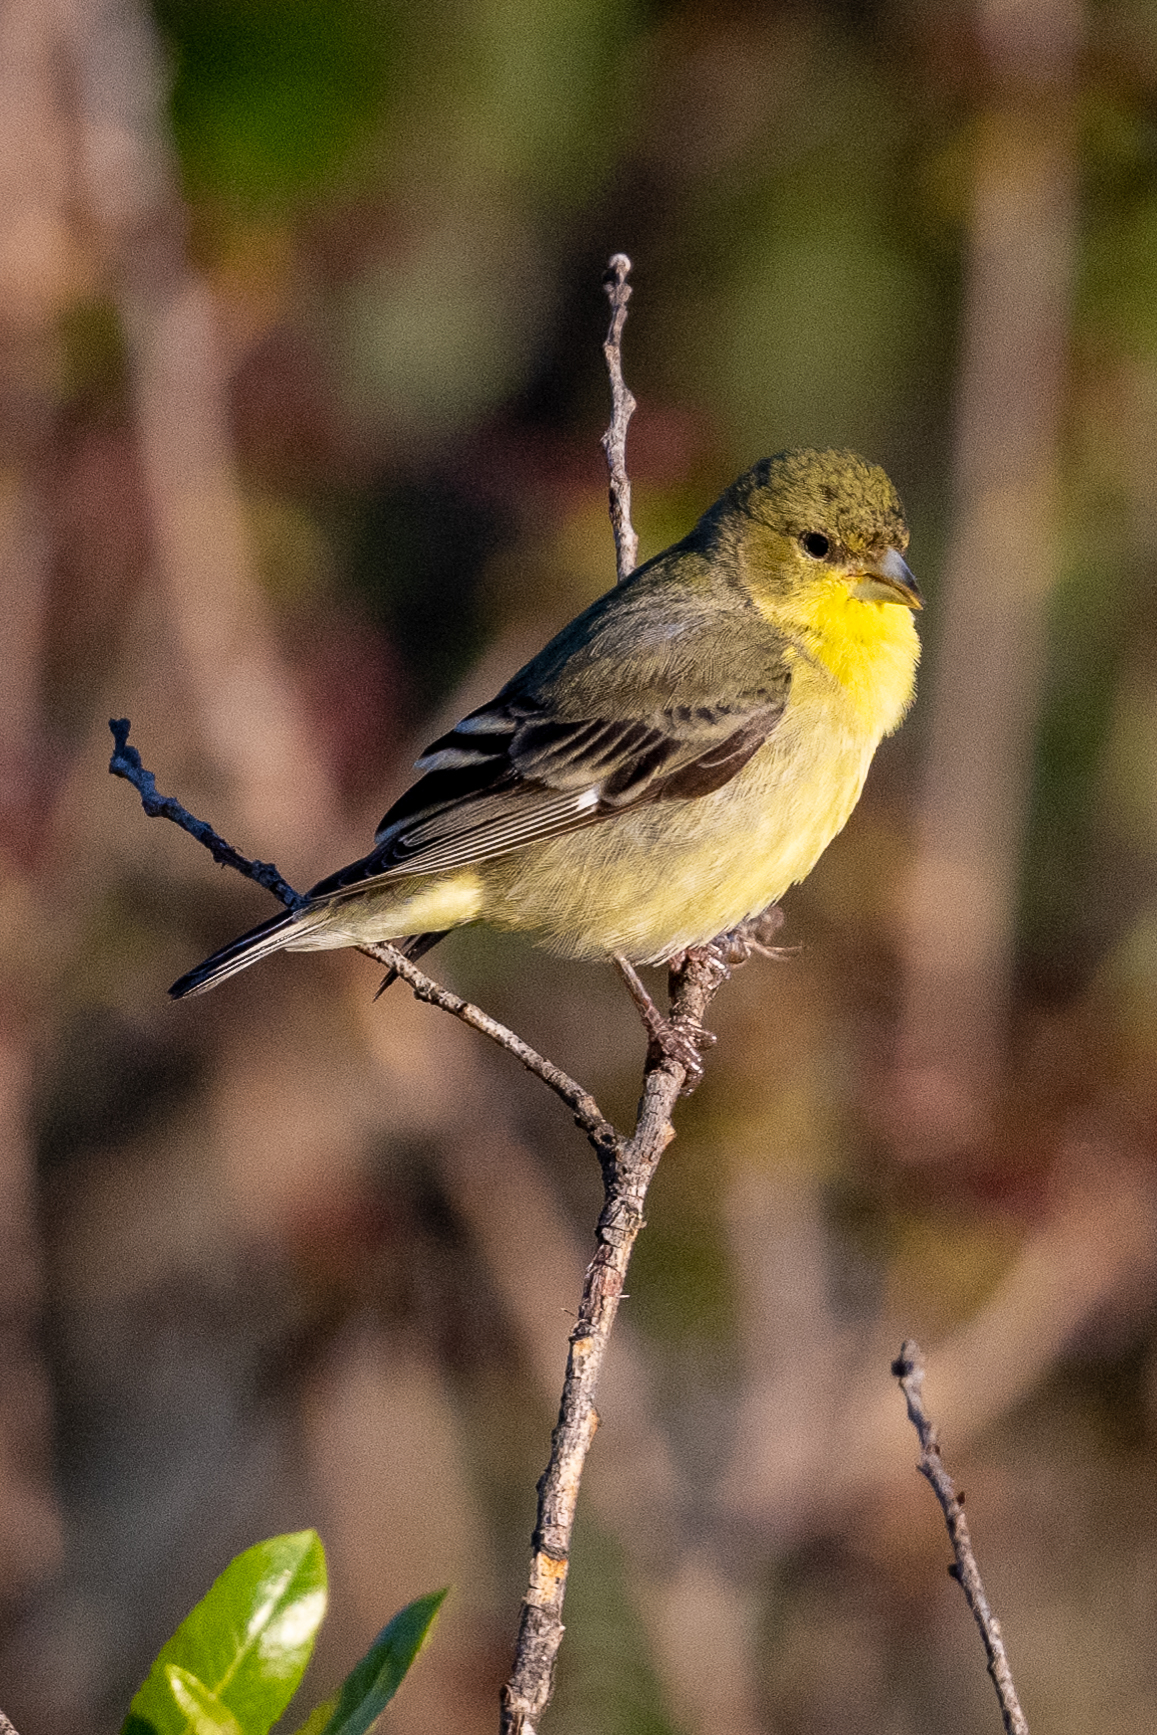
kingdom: Animalia
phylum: Chordata
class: Aves
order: Passeriformes
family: Fringillidae
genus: Spinus
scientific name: Spinus psaltria
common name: Lesser goldfinch
